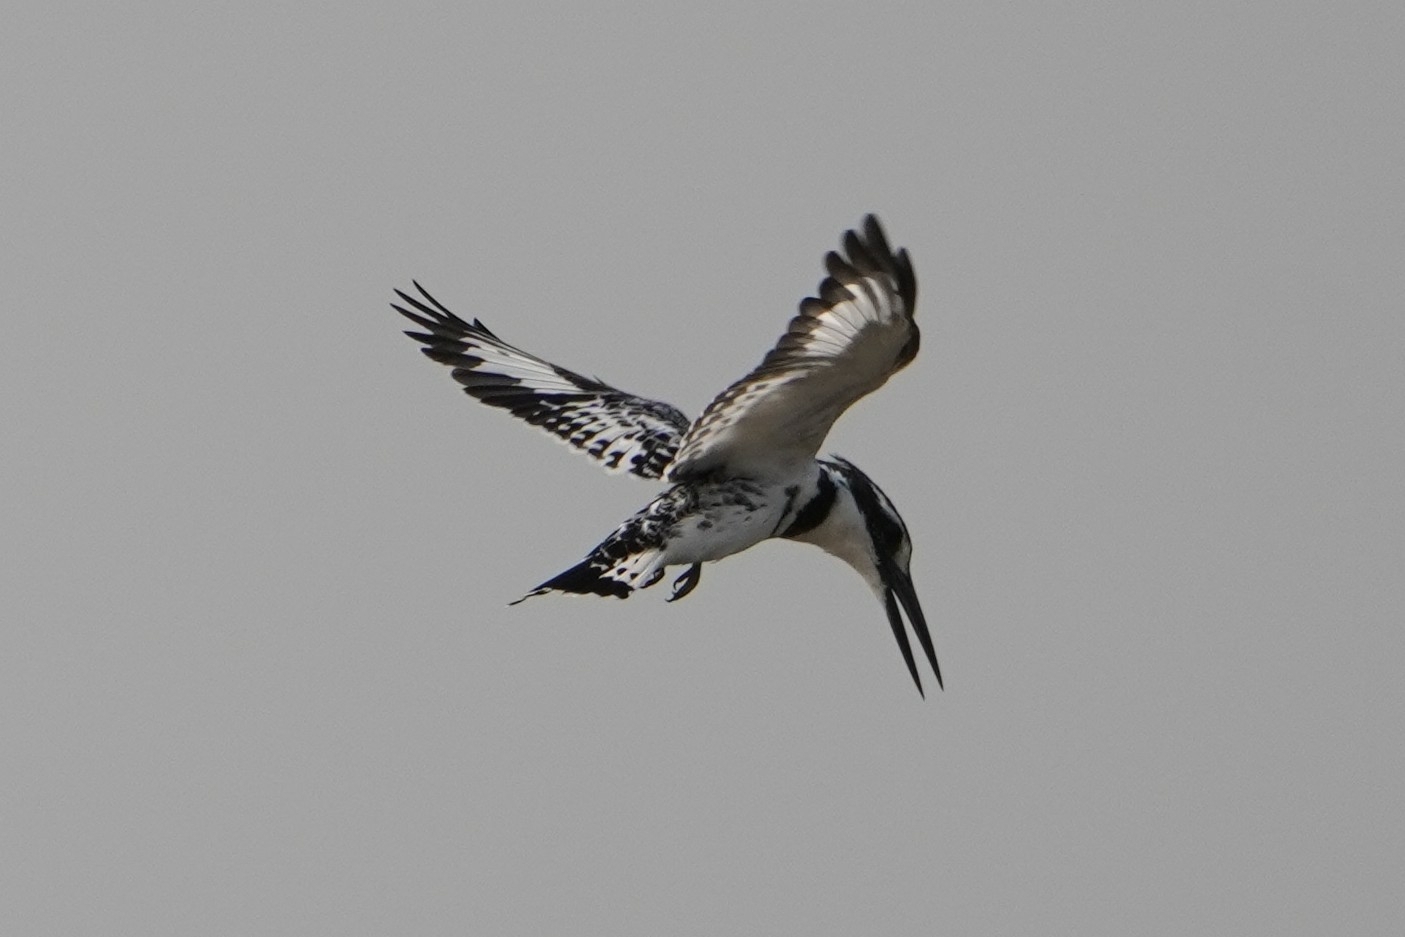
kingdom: Animalia
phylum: Chordata
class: Aves
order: Coraciiformes
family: Alcedinidae
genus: Ceryle
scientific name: Ceryle rudis
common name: Pied kingfisher
